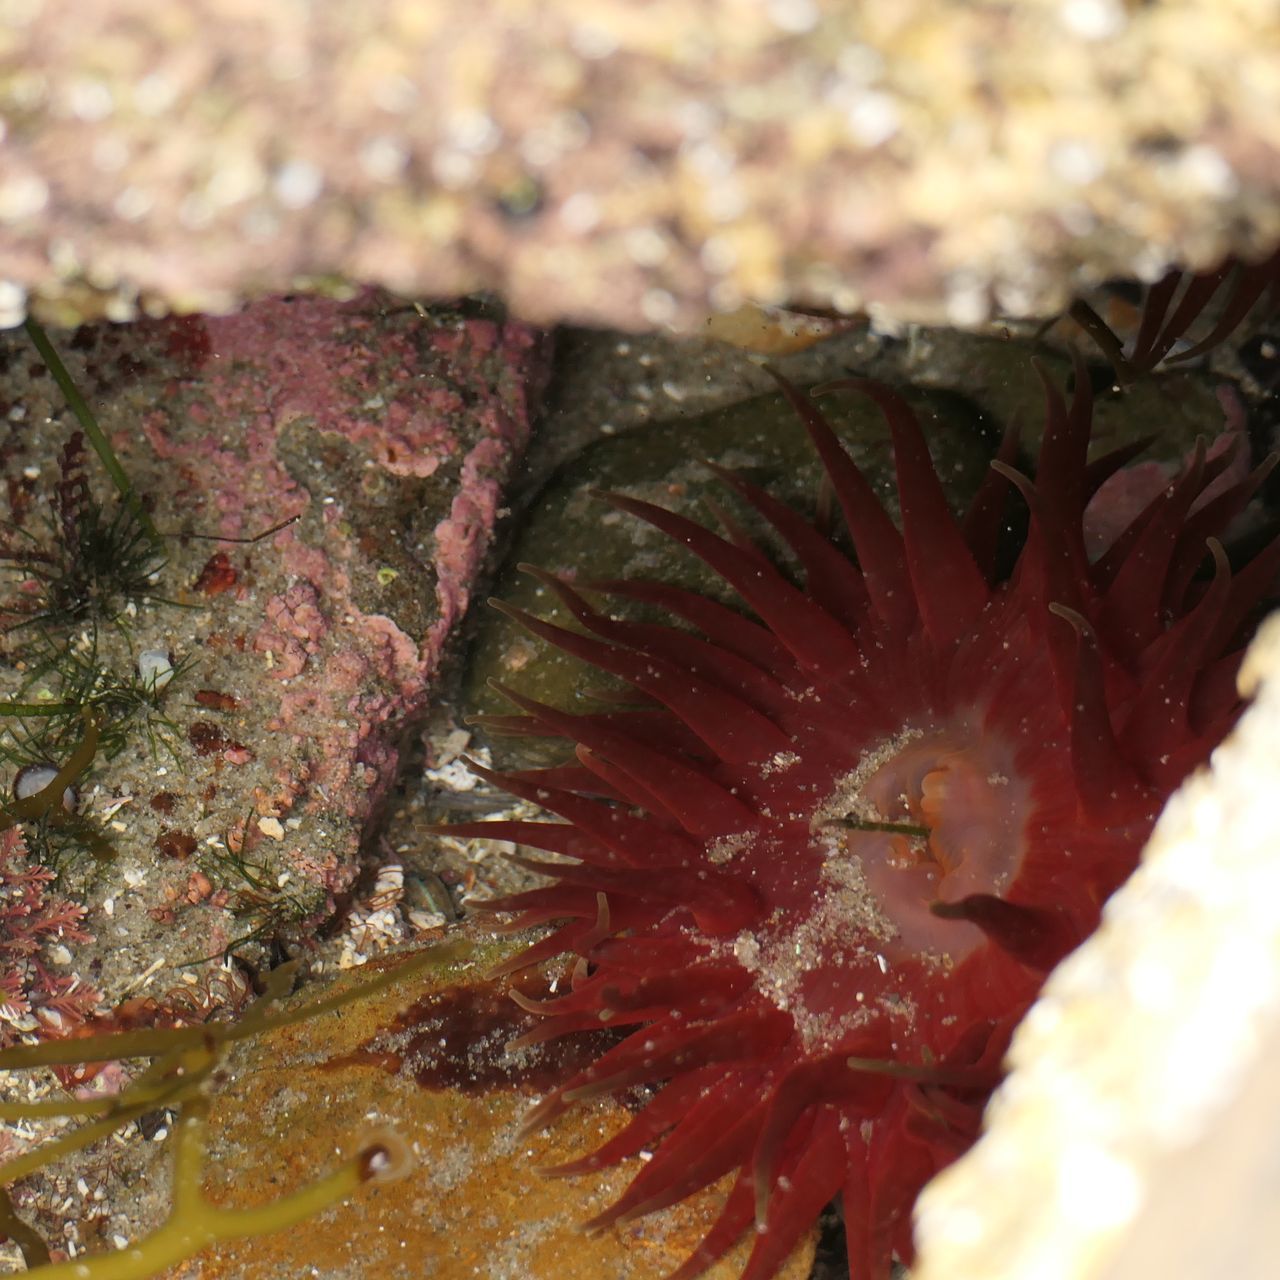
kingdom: Animalia
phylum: Cnidaria
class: Anthozoa
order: Actiniaria
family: Actiniidae
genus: Actinia
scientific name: Actinia tenebrosa
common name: Waratah anemone
